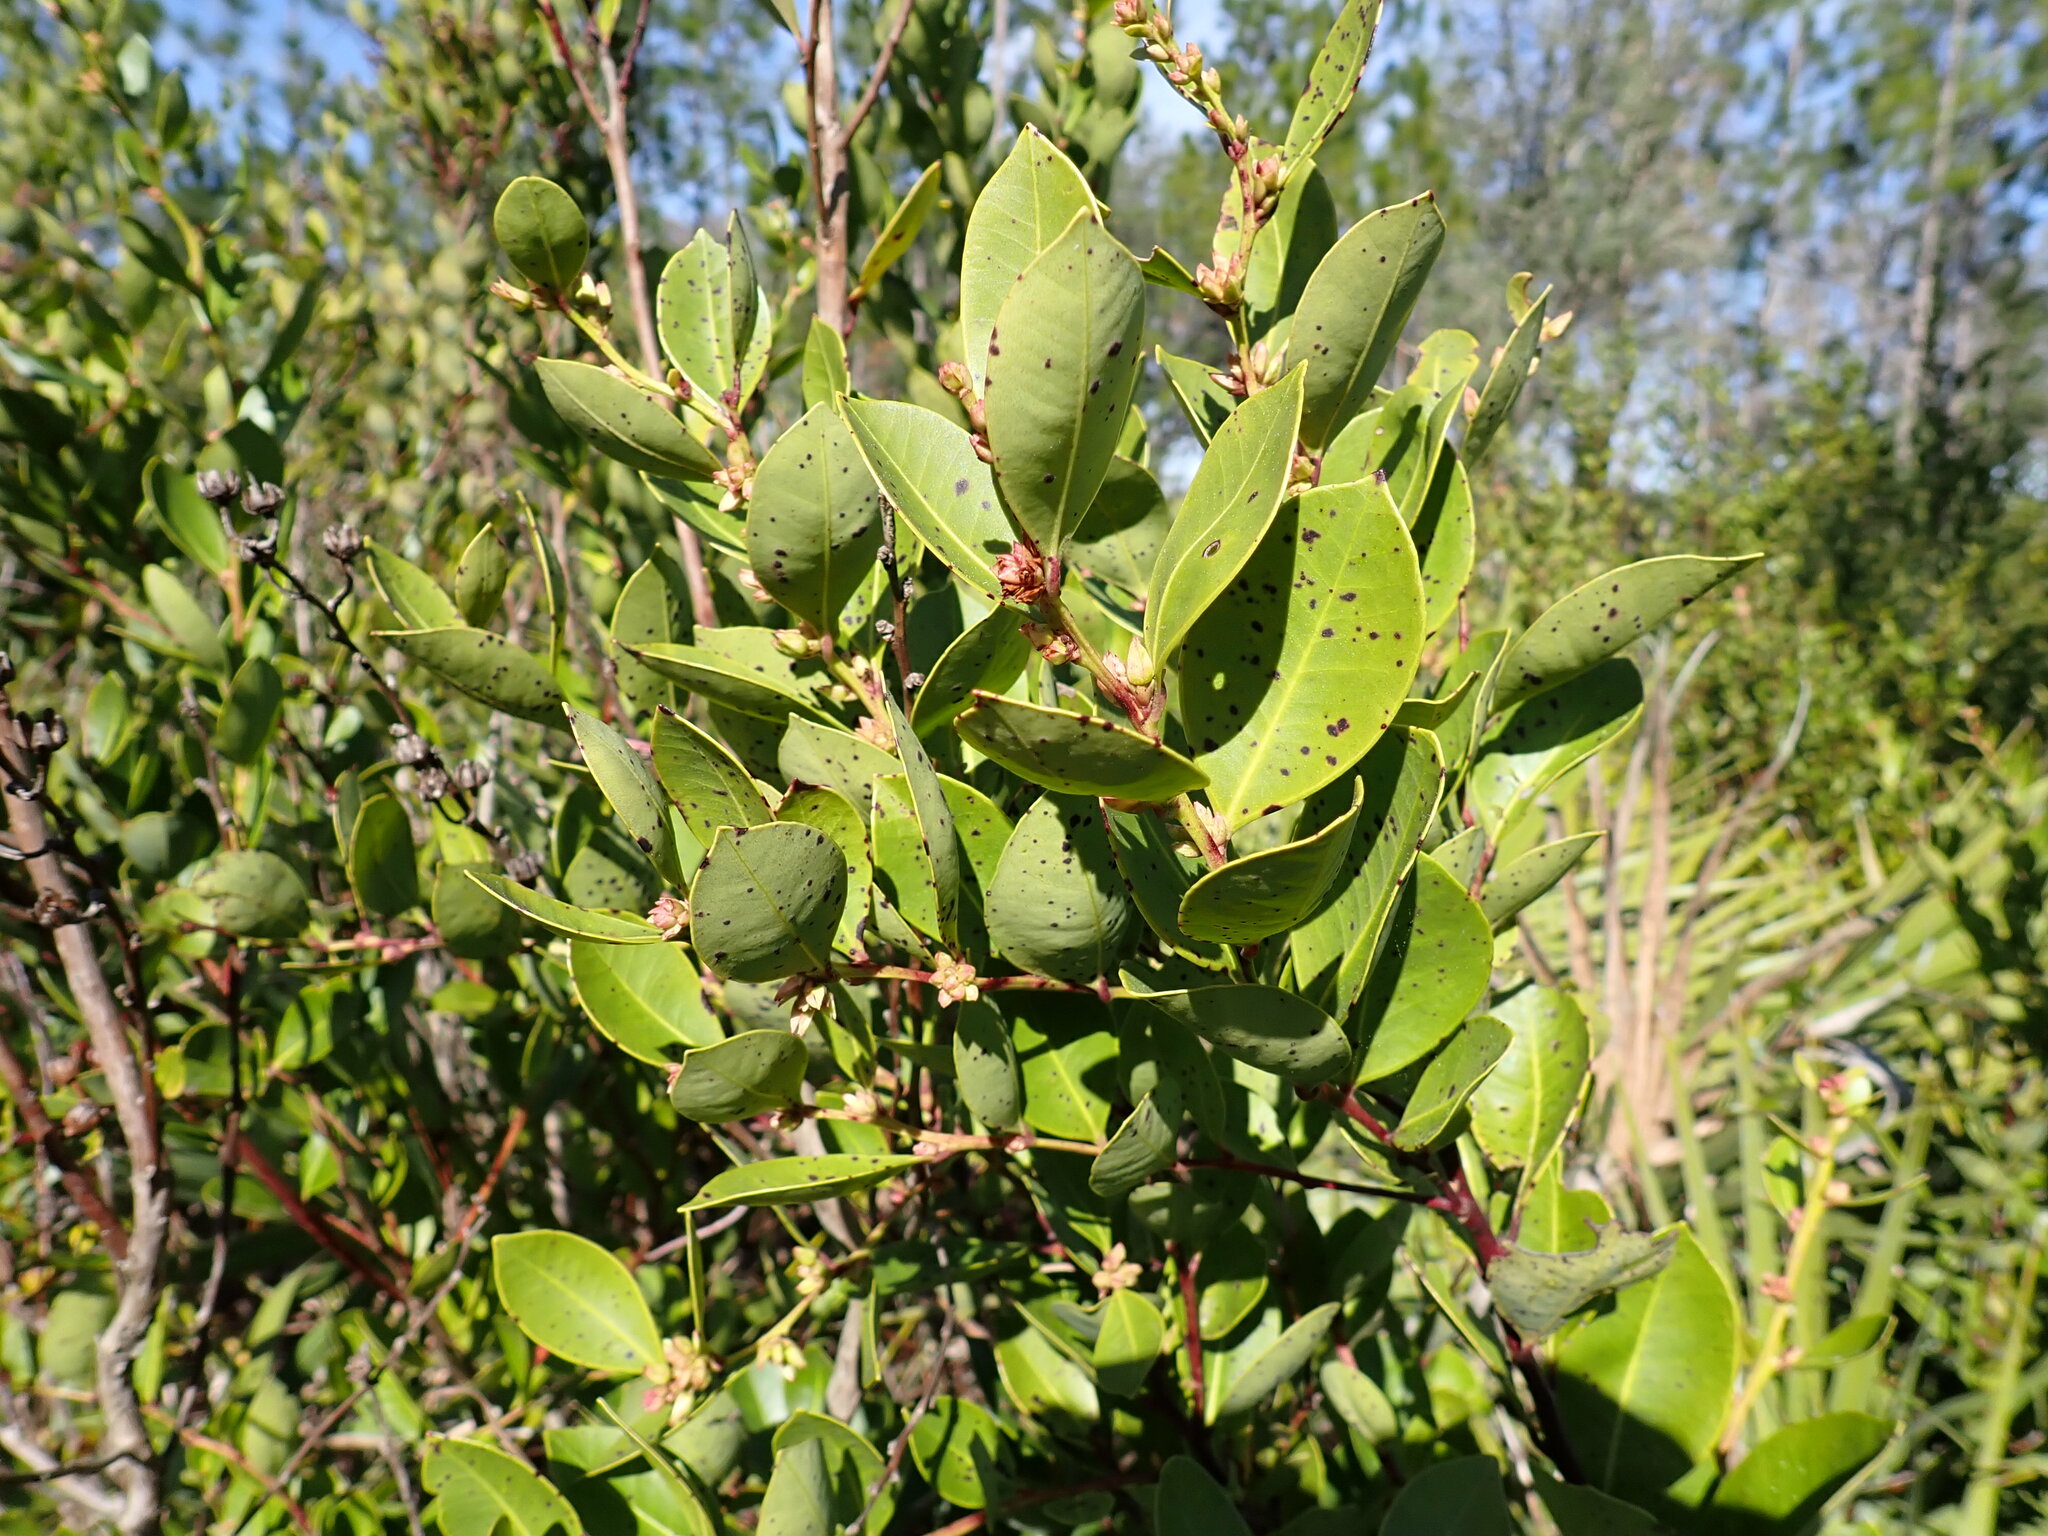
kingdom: Plantae
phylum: Tracheophyta
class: Magnoliopsida
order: Ericales
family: Ericaceae
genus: Lyonia
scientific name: Lyonia lucida
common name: Fetterbush
